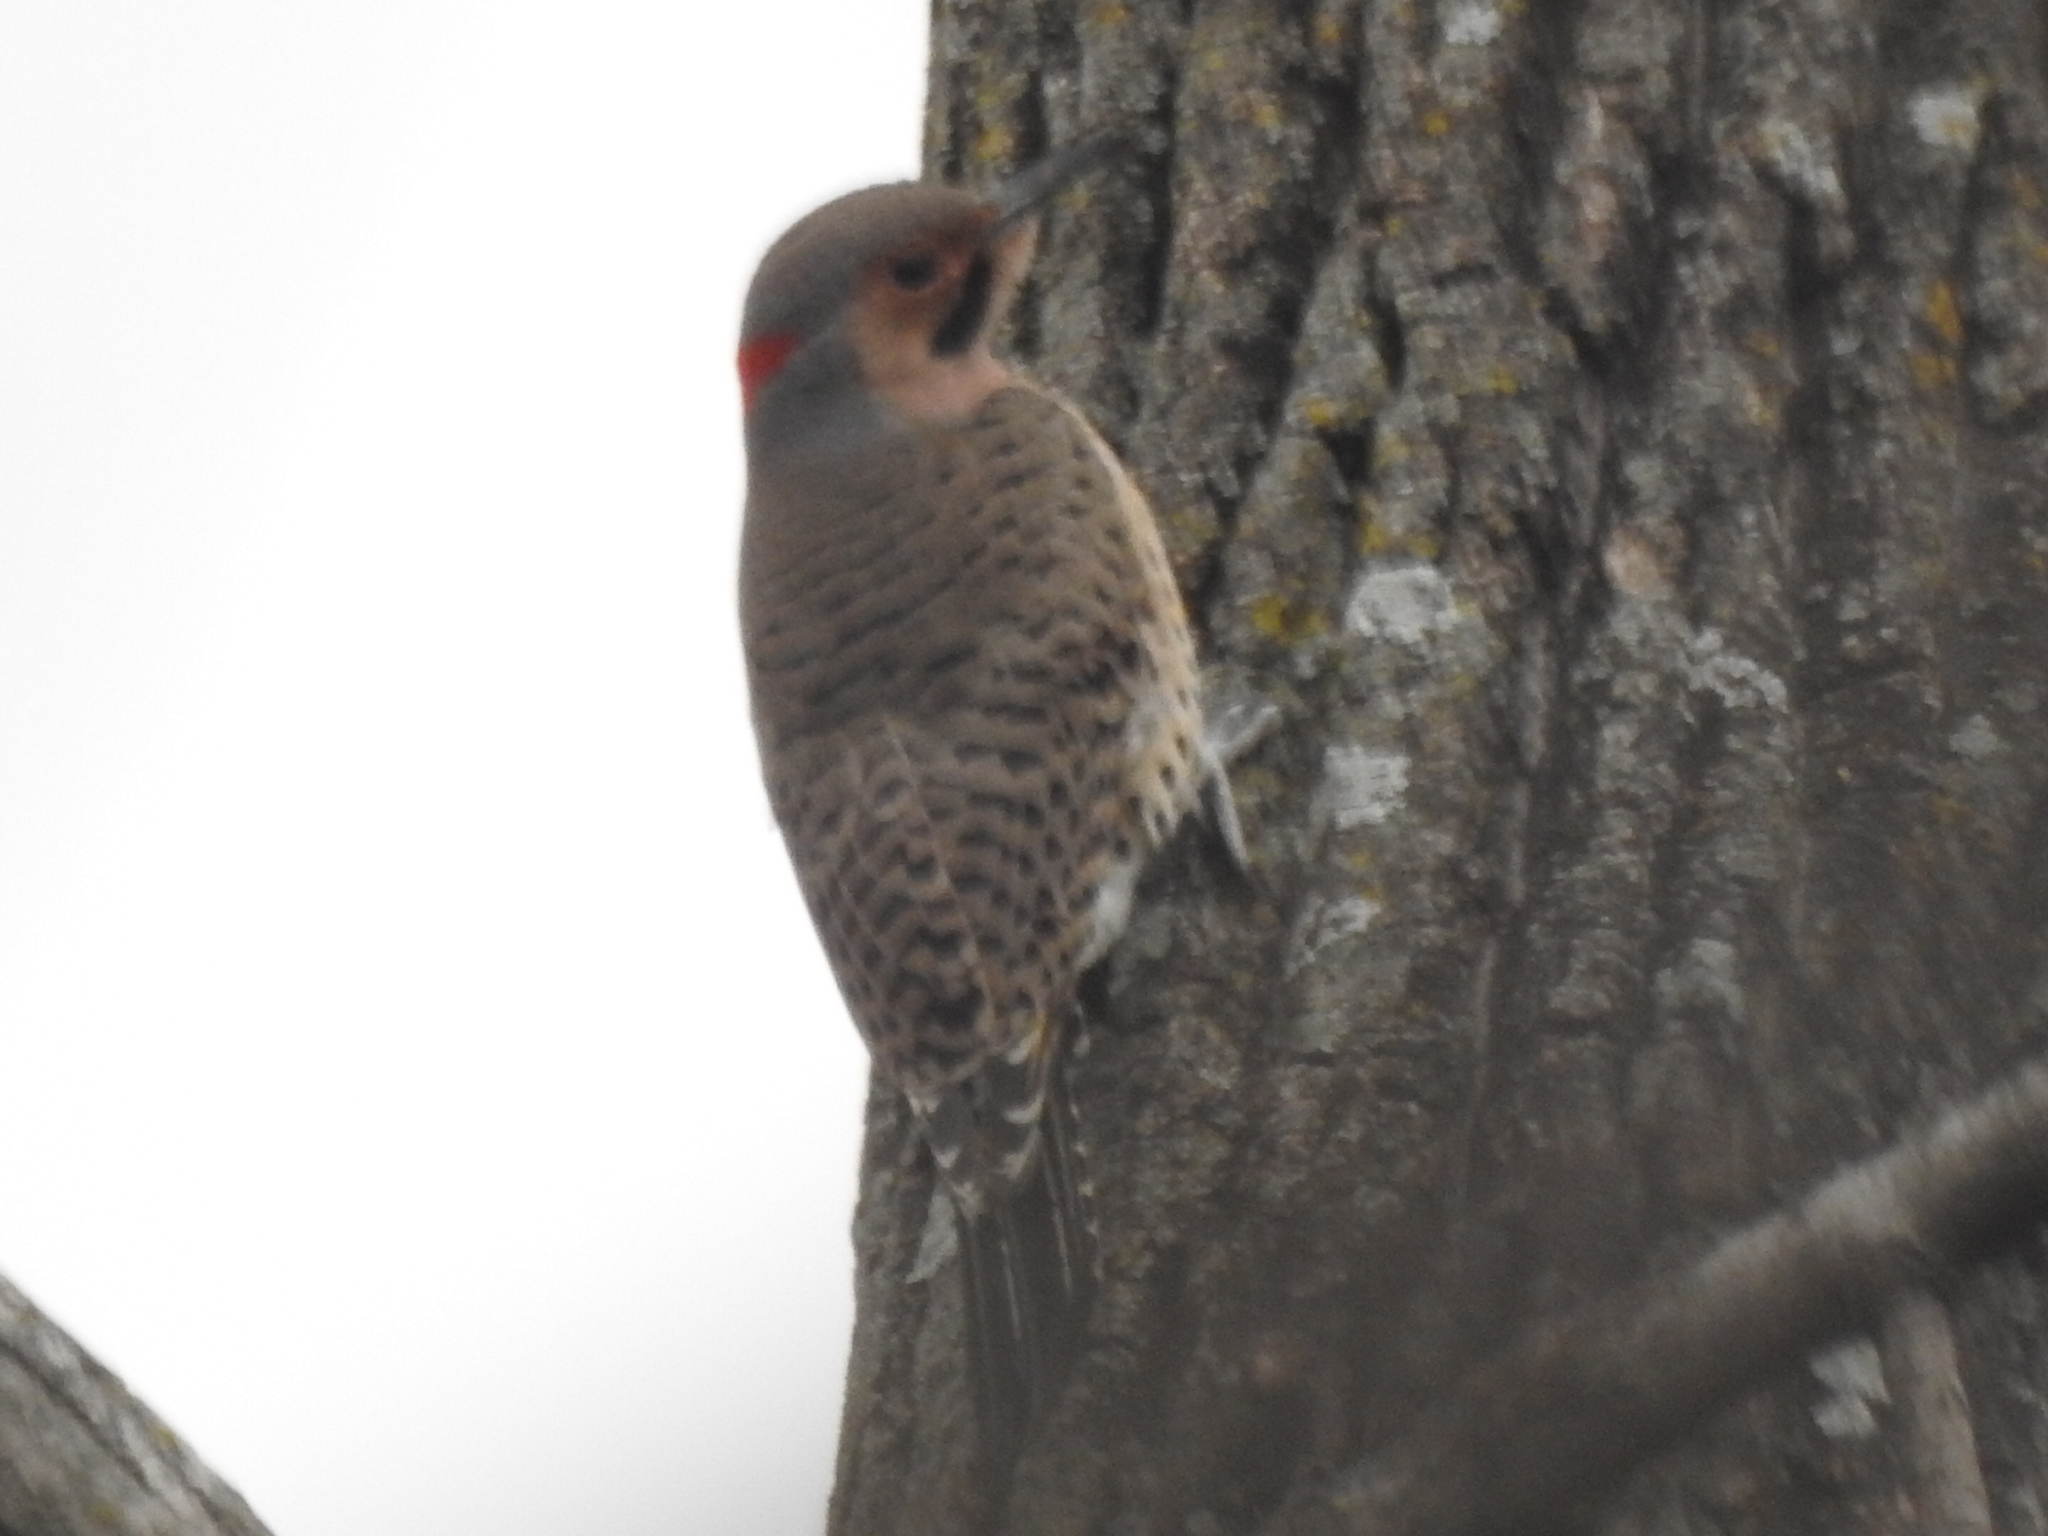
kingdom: Animalia
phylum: Chordata
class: Aves
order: Piciformes
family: Picidae
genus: Colaptes
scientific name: Colaptes auratus
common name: Northern flicker
